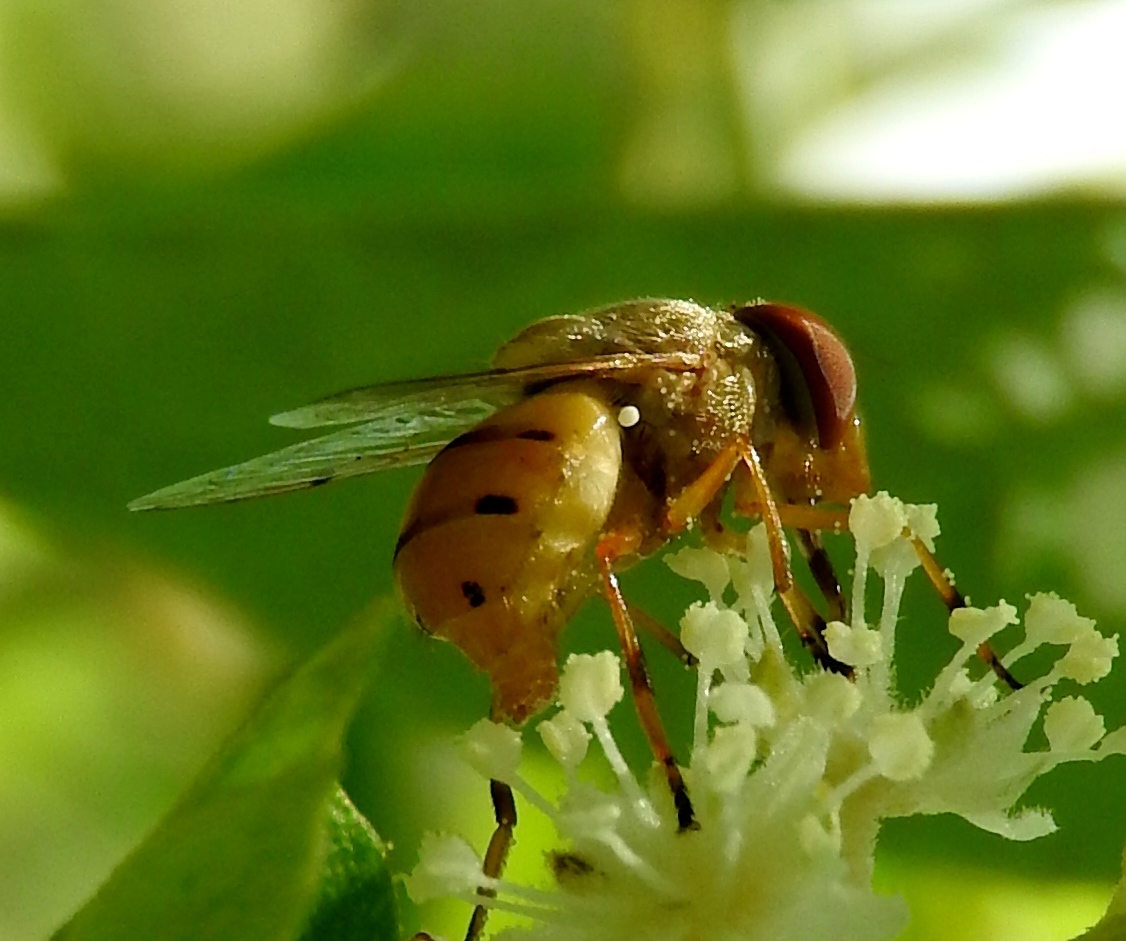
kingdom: Animalia
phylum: Arthropoda
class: Insecta
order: Diptera
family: Syrphidae
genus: Copestylum
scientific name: Copestylum sexmaculatum
